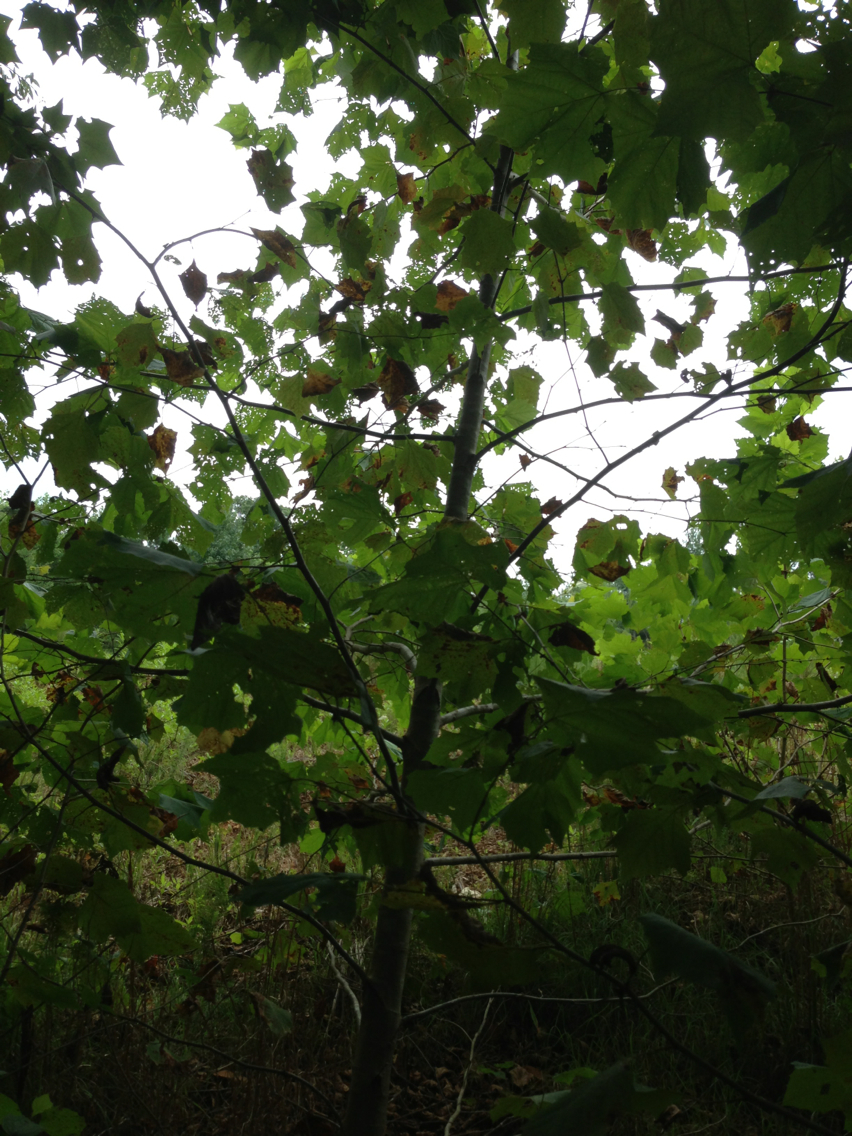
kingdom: Plantae
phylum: Tracheophyta
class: Magnoliopsida
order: Proteales
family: Platanaceae
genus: Platanus
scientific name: Platanus occidentalis
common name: American sycamore
